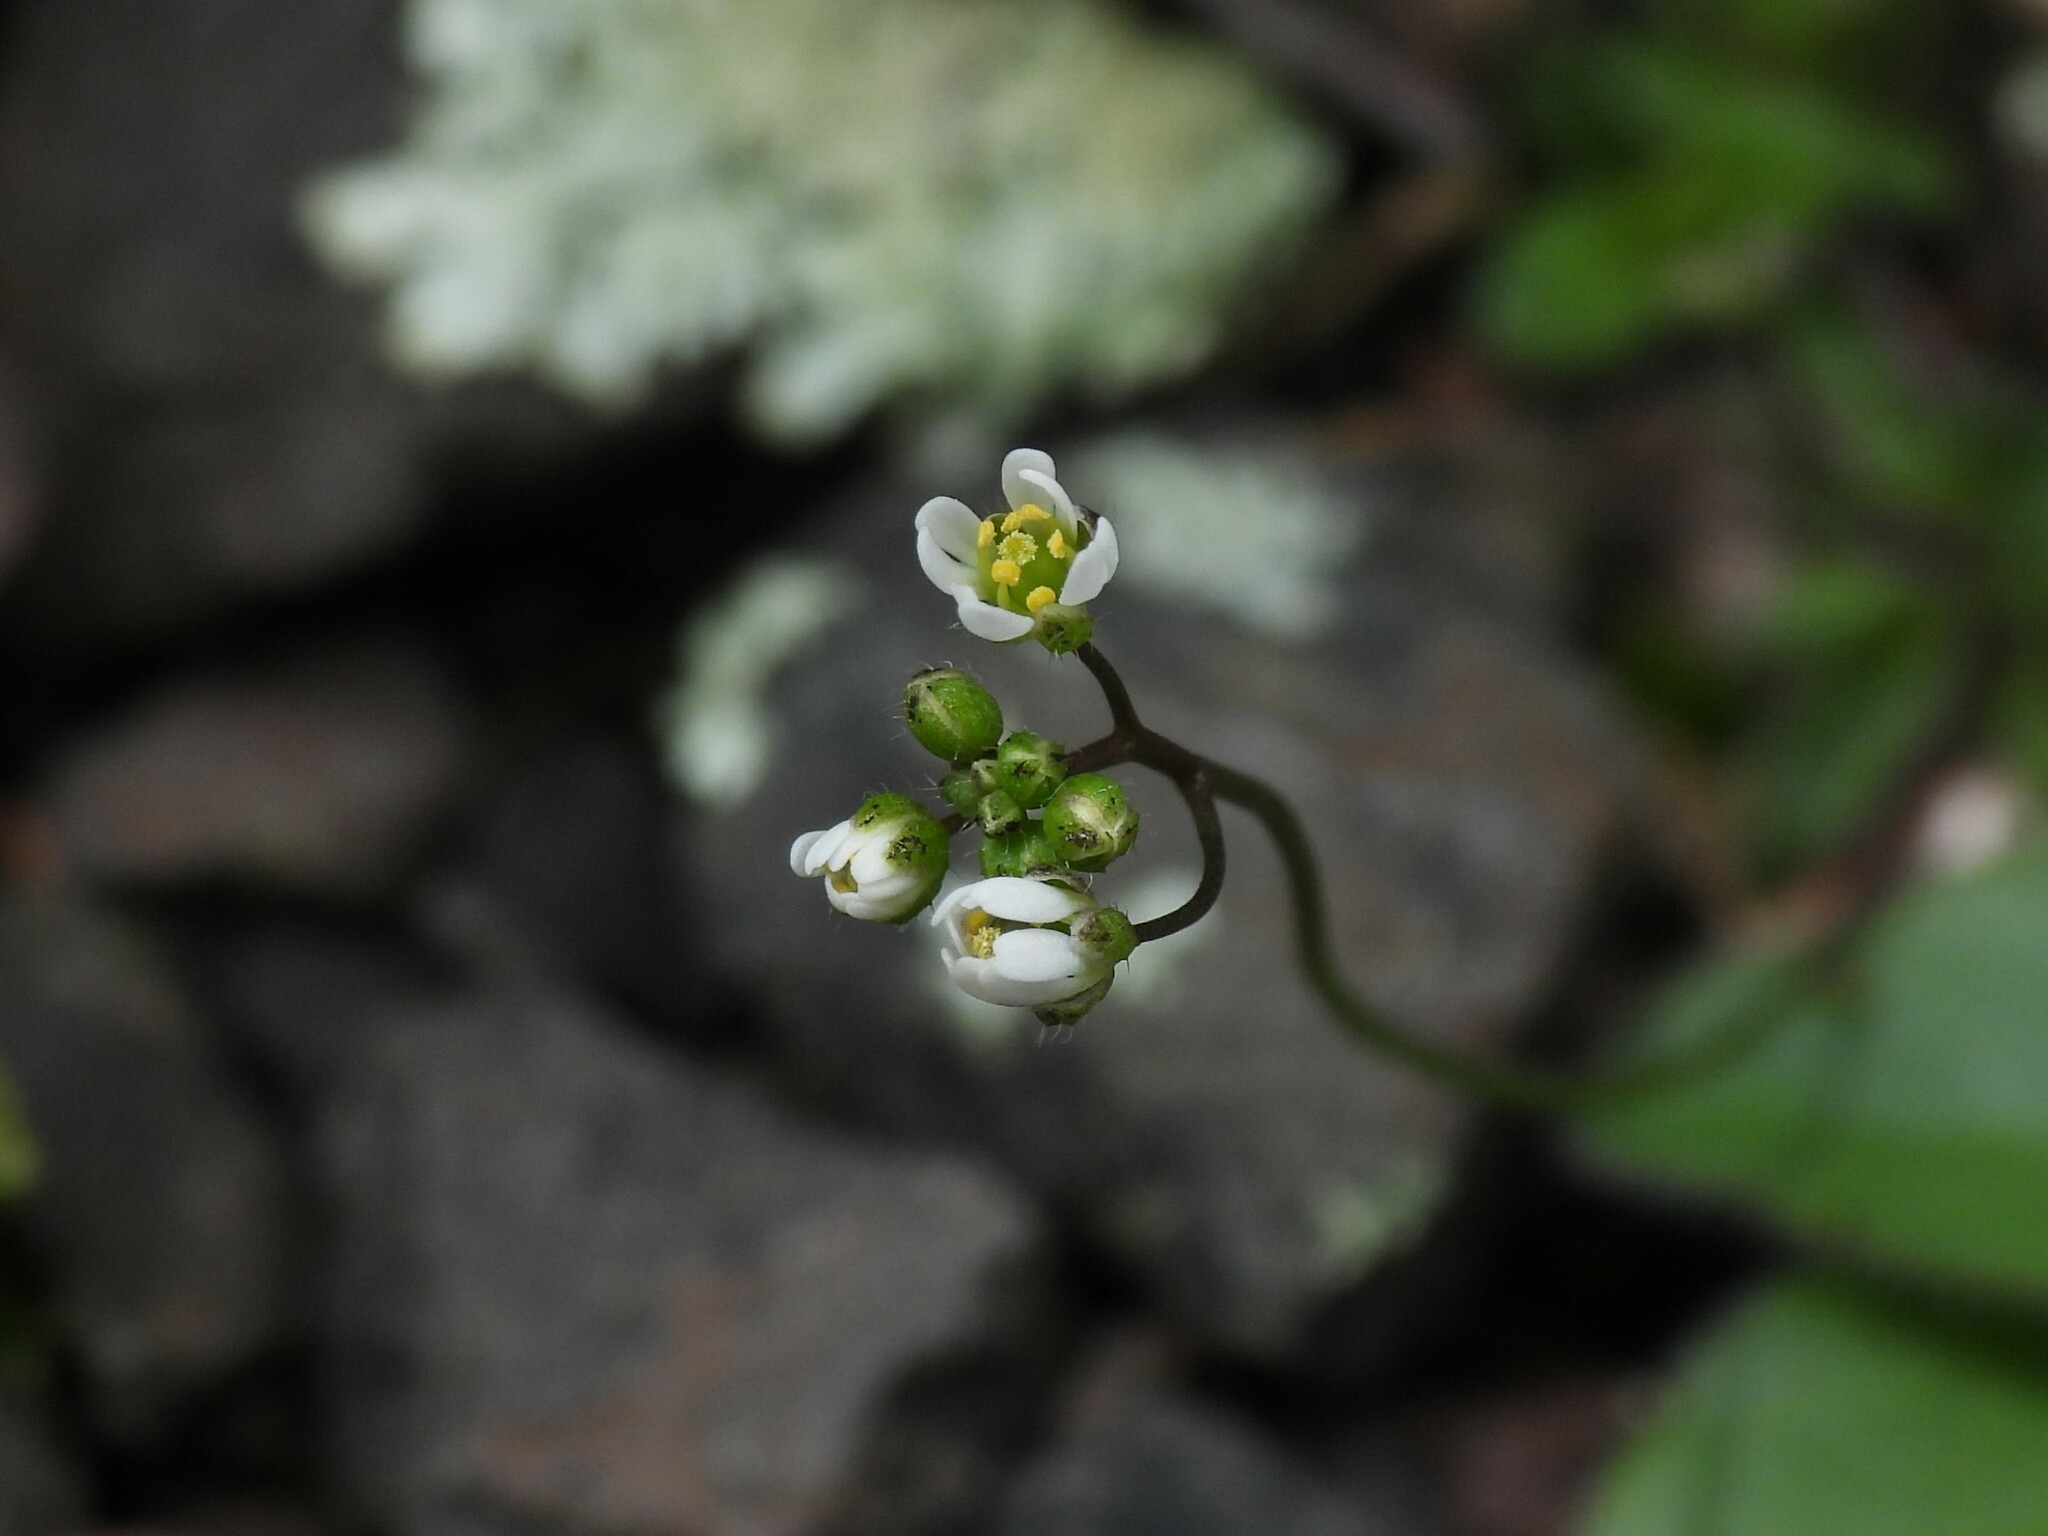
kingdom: Plantae
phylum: Tracheophyta
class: Magnoliopsida
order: Brassicales
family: Brassicaceae
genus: Draba
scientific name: Draba verna
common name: Spring draba
